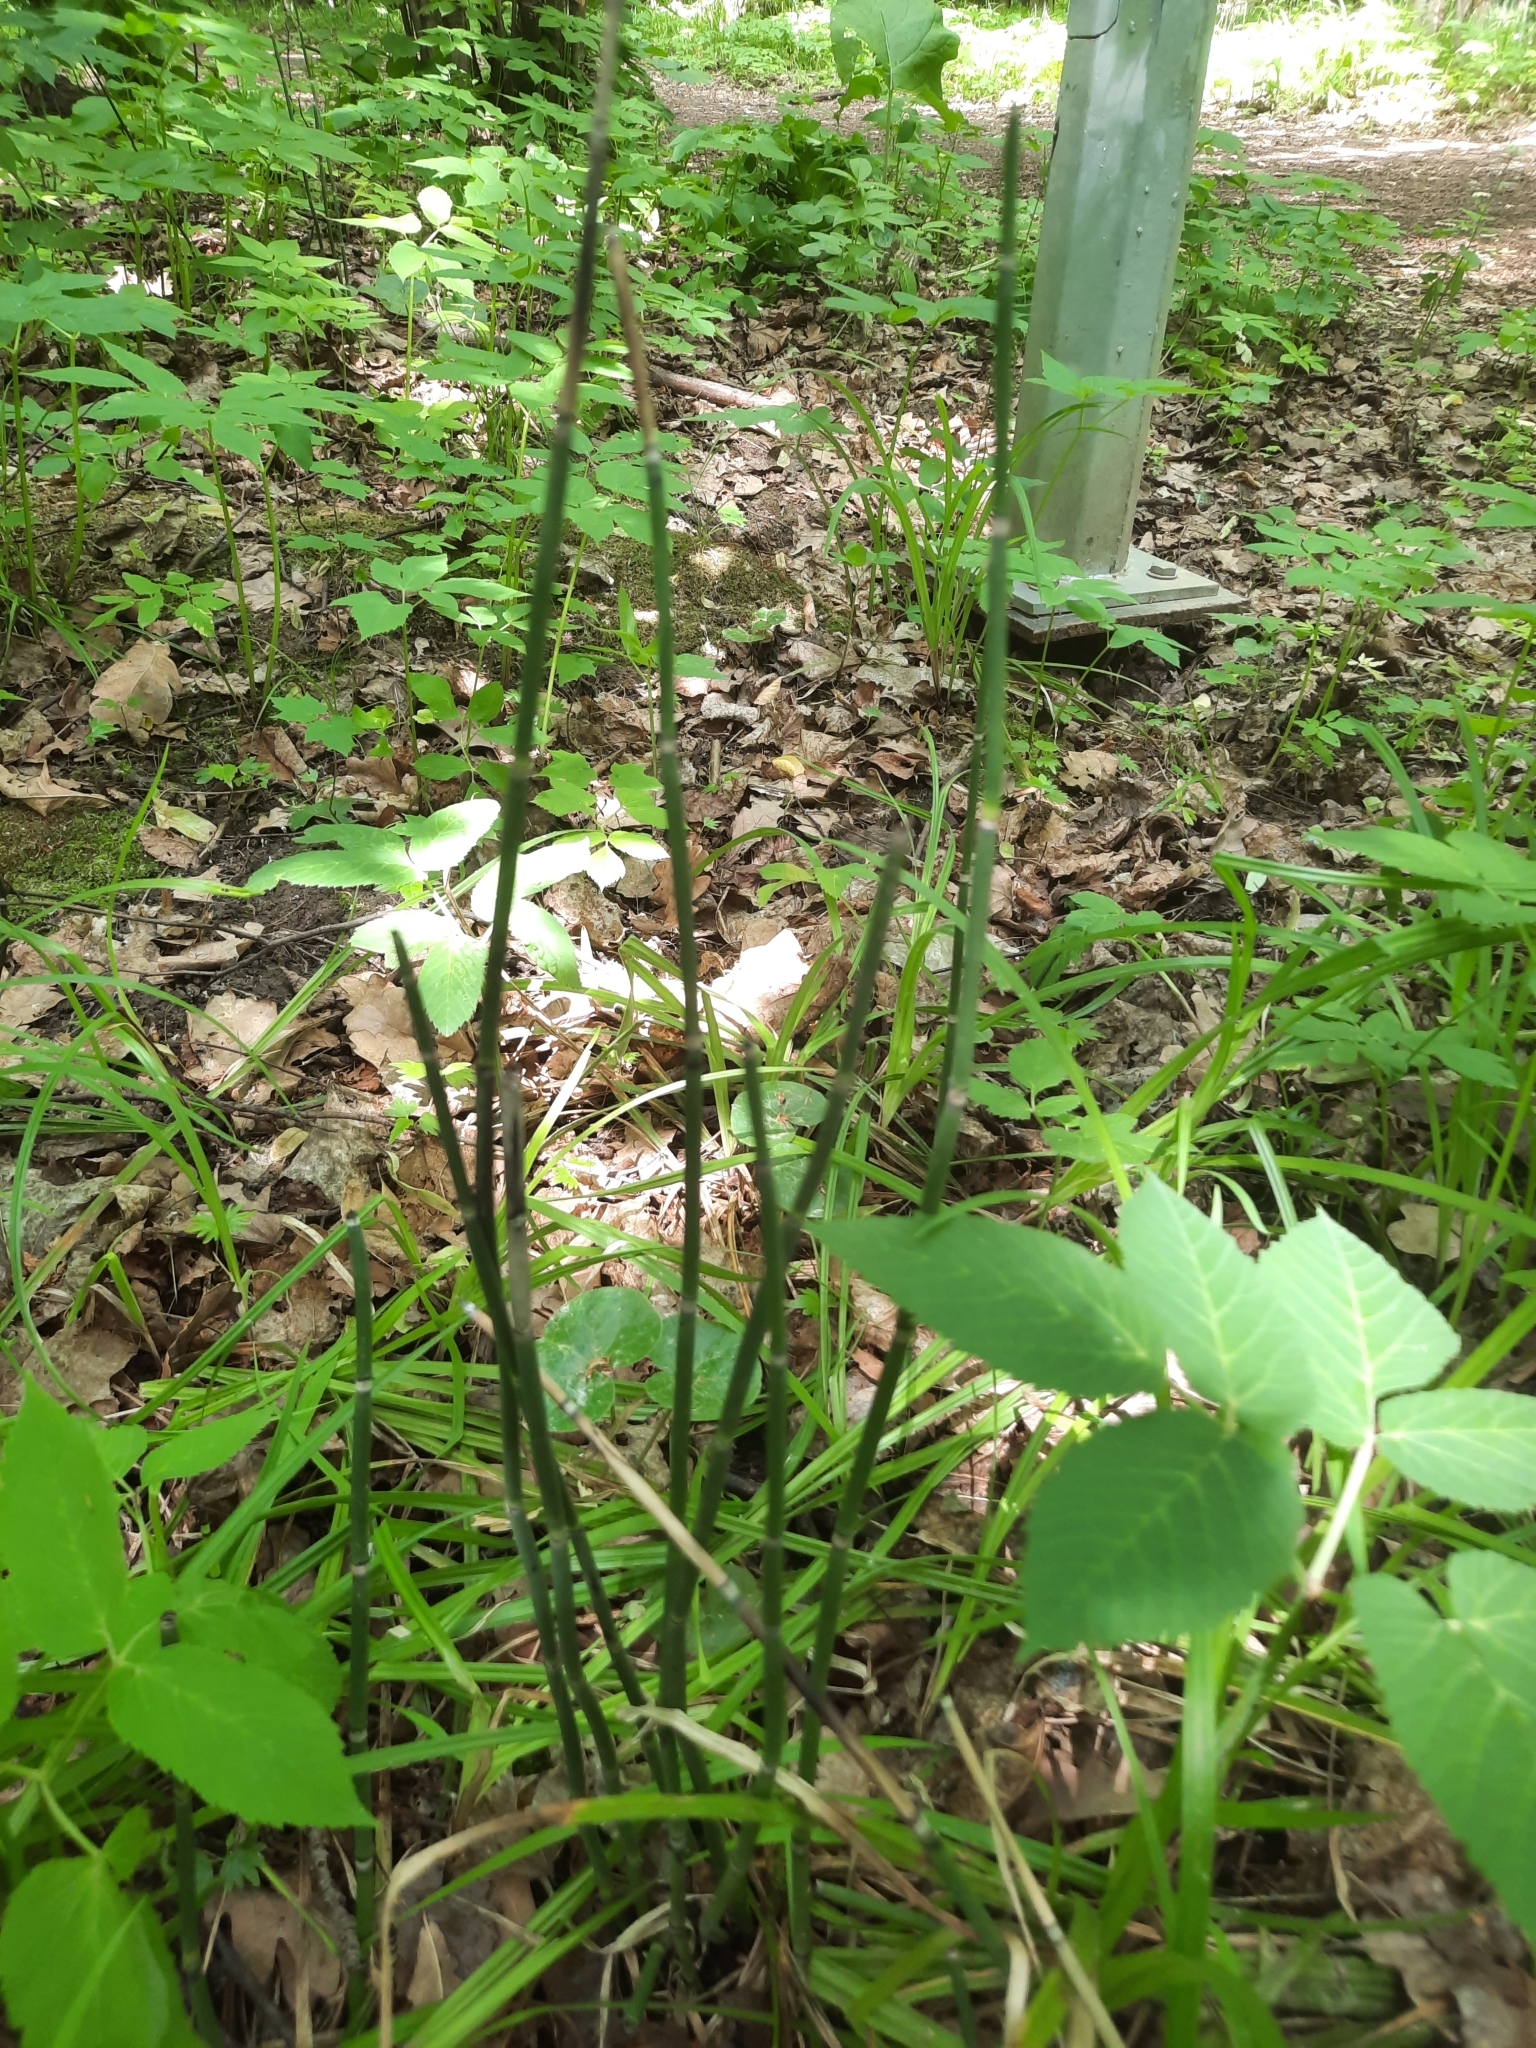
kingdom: Plantae
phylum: Tracheophyta
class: Polypodiopsida
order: Equisetales
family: Equisetaceae
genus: Equisetum
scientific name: Equisetum hyemale
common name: Rough horsetail
